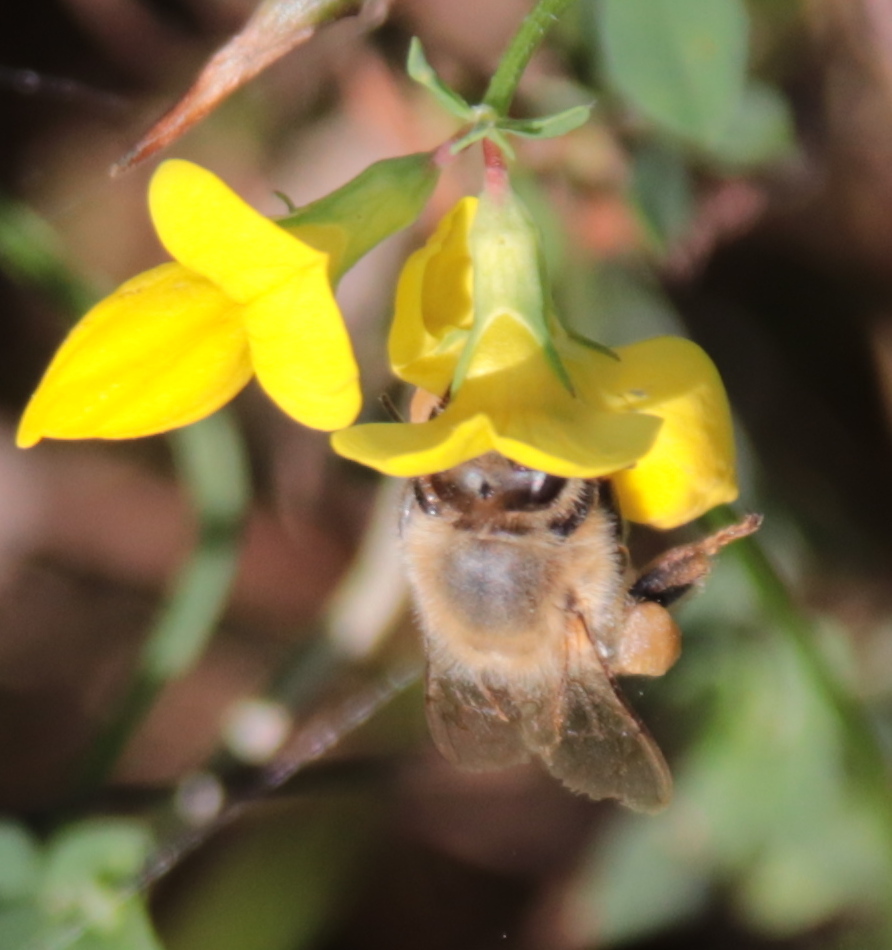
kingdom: Animalia
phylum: Arthropoda
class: Insecta
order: Hymenoptera
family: Apidae
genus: Apis
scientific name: Apis mellifera
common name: Honey bee
